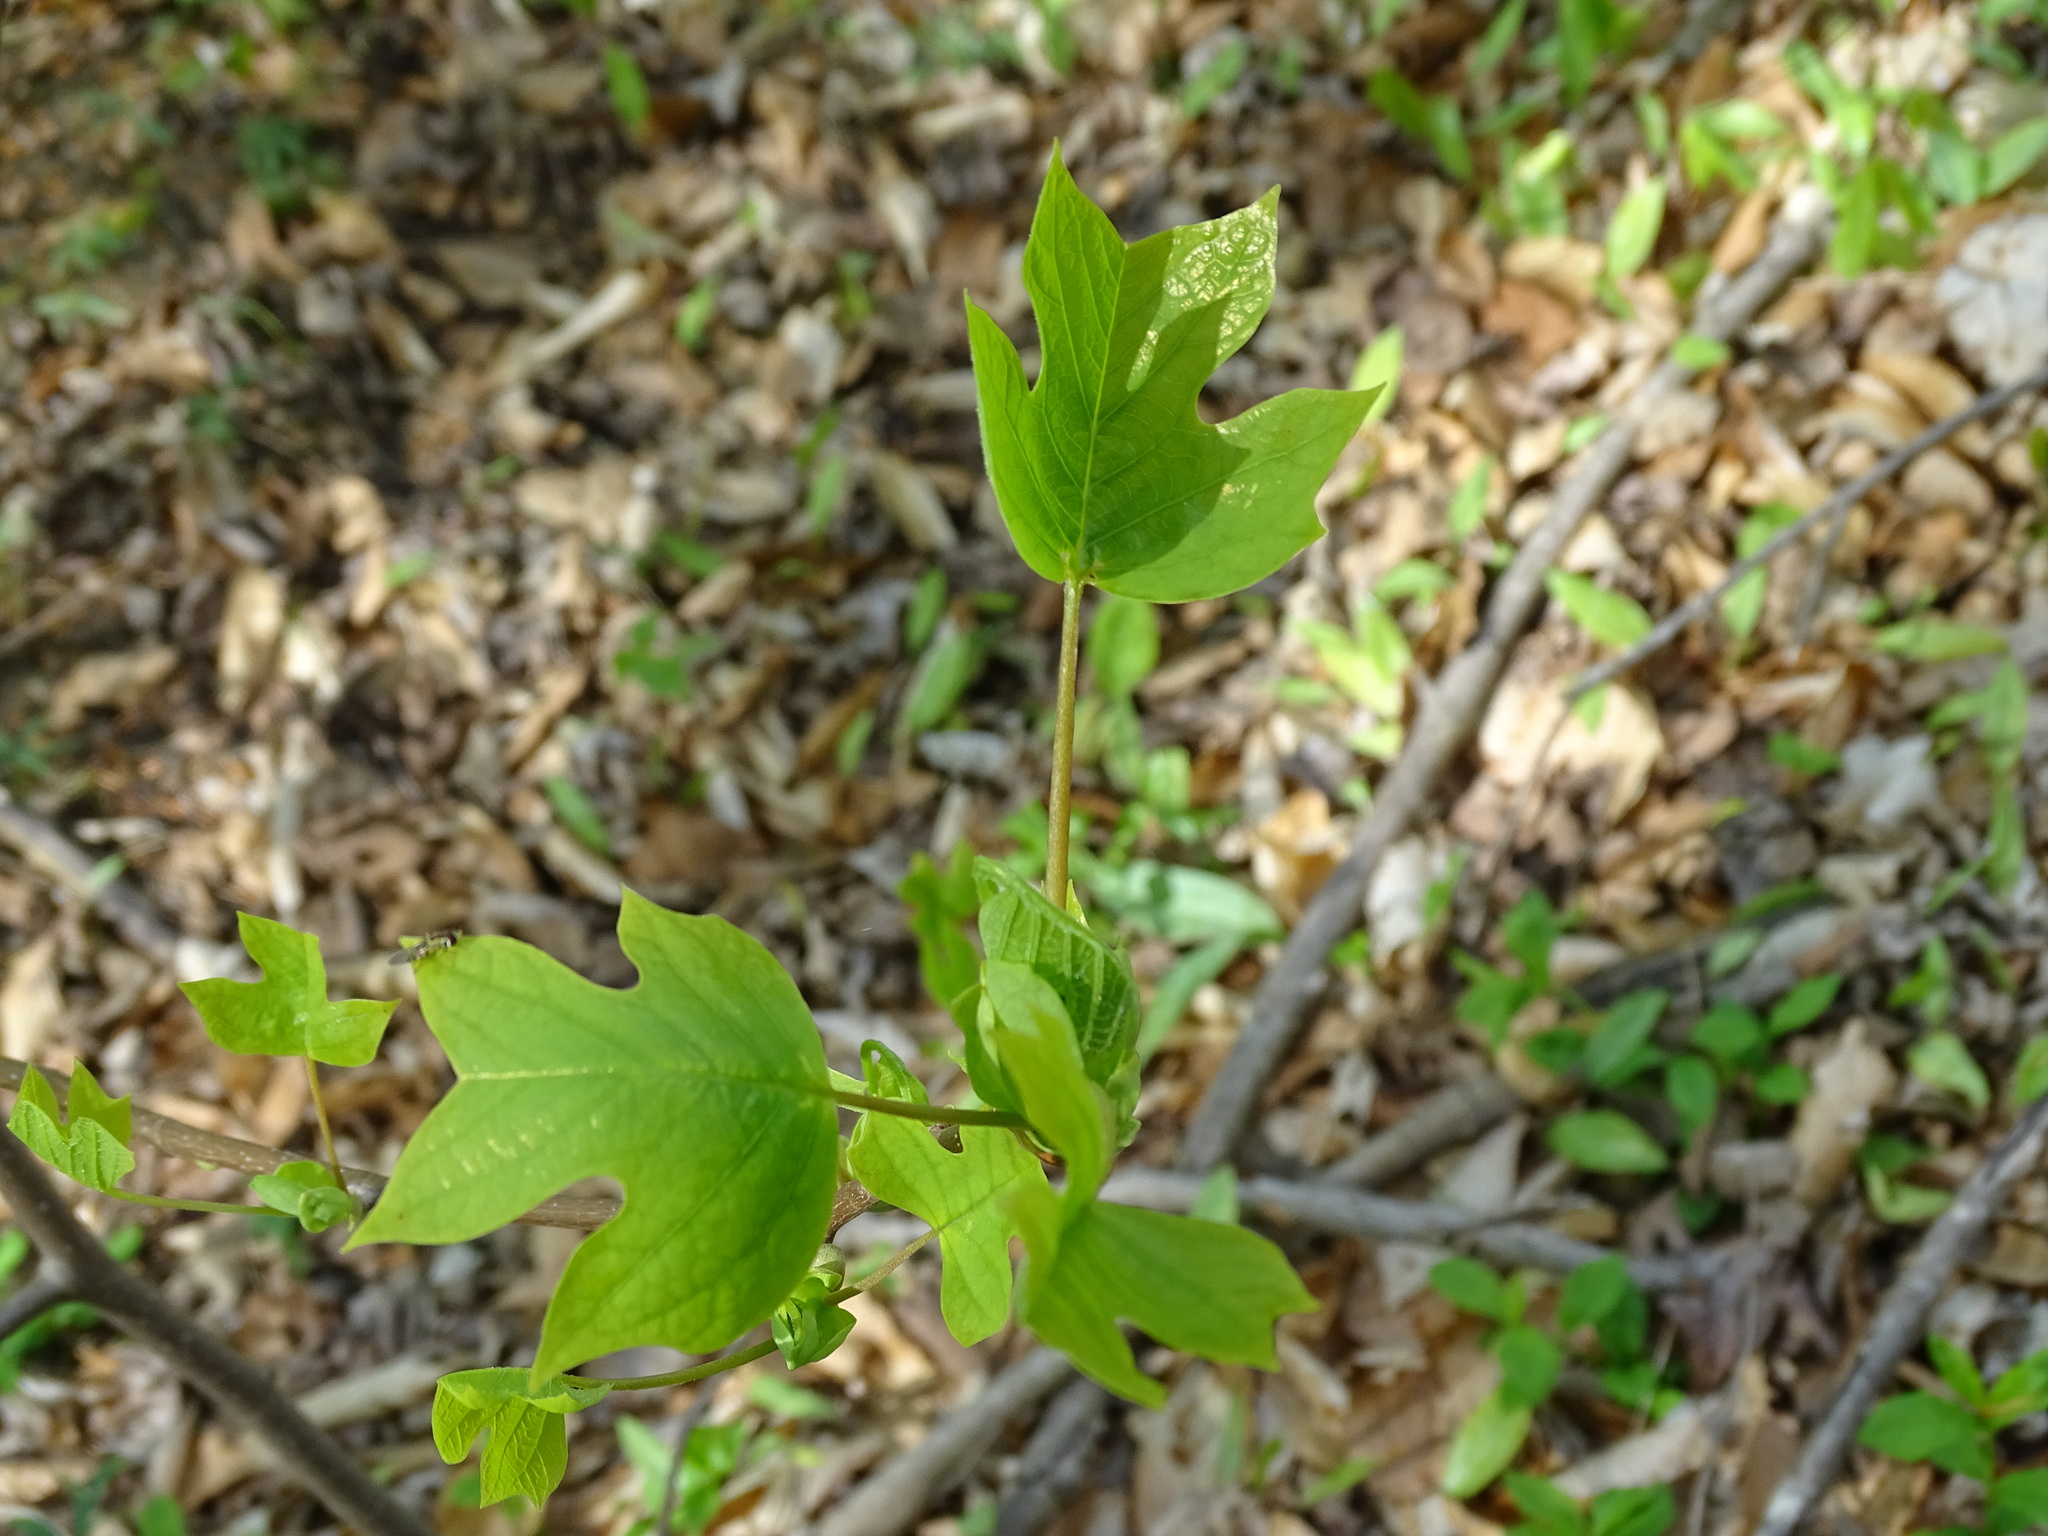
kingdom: Plantae
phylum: Tracheophyta
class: Magnoliopsida
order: Magnoliales
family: Magnoliaceae
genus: Liriodendron
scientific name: Liriodendron tulipifera
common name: Tulip tree
